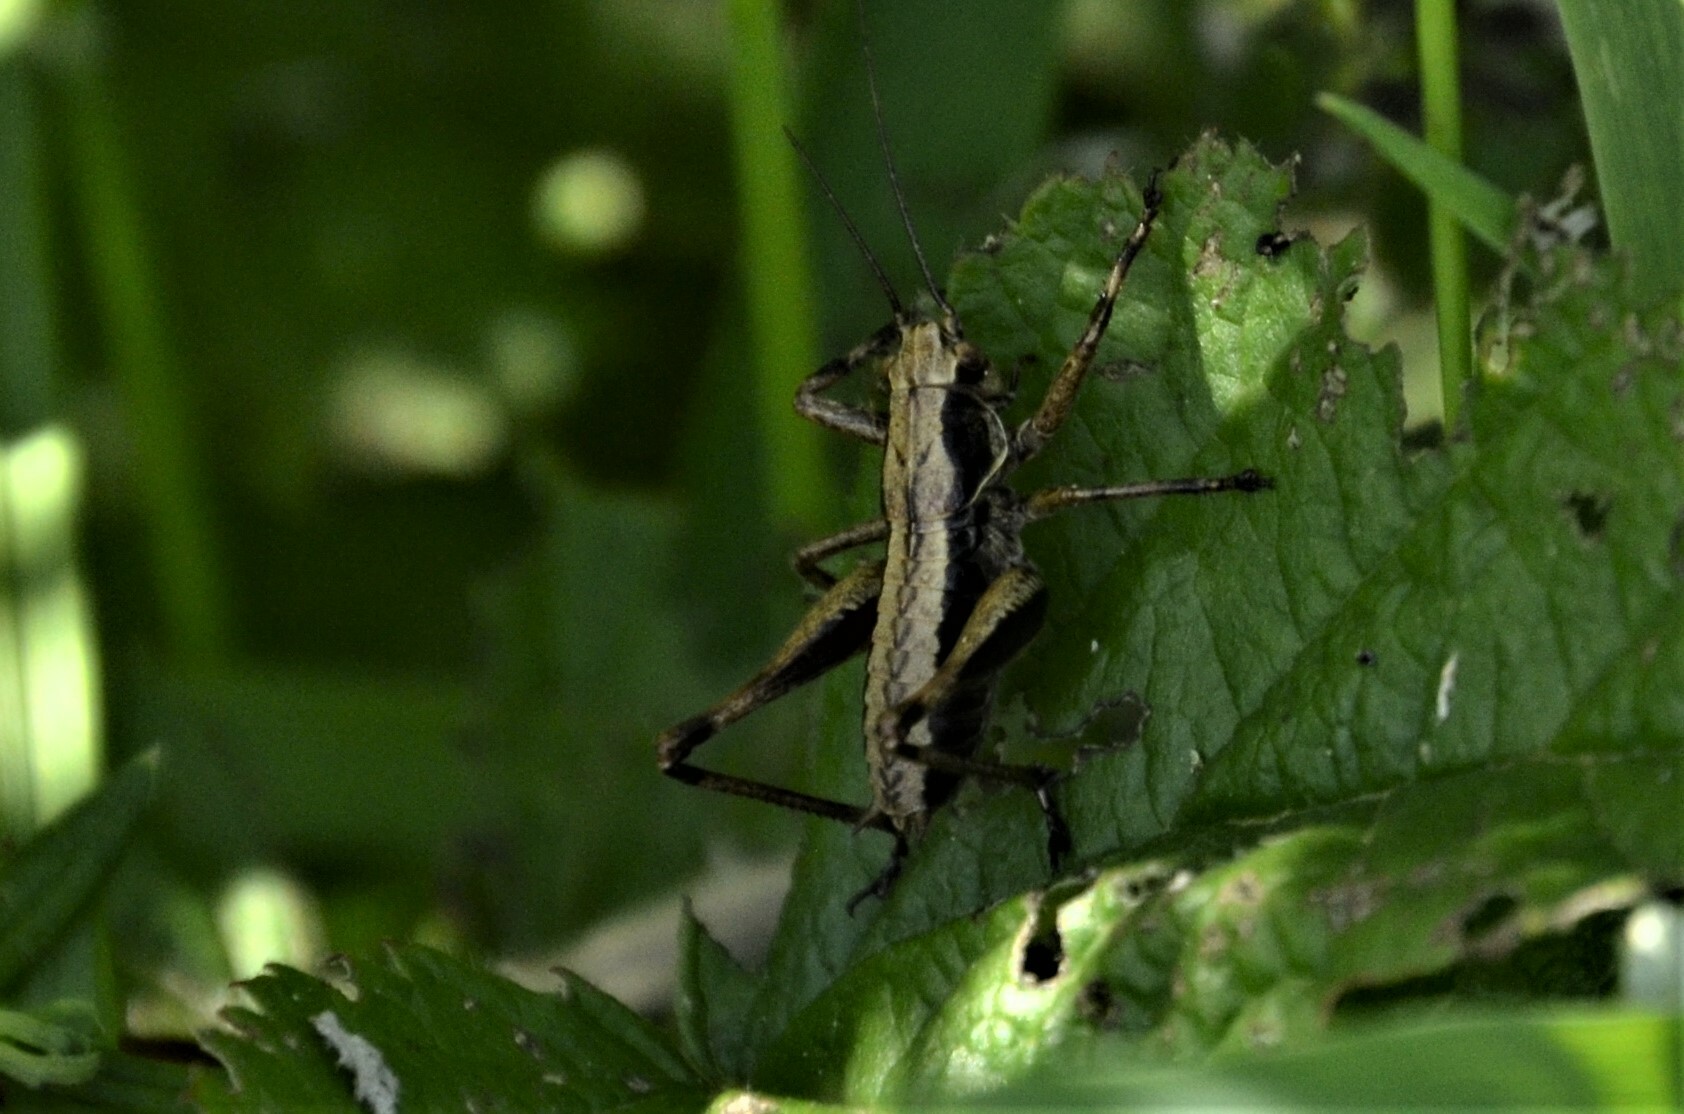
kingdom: Animalia
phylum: Arthropoda
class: Insecta
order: Orthoptera
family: Tettigoniidae
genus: Pholidoptera
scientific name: Pholidoptera griseoaptera
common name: Dark bush-cricket
